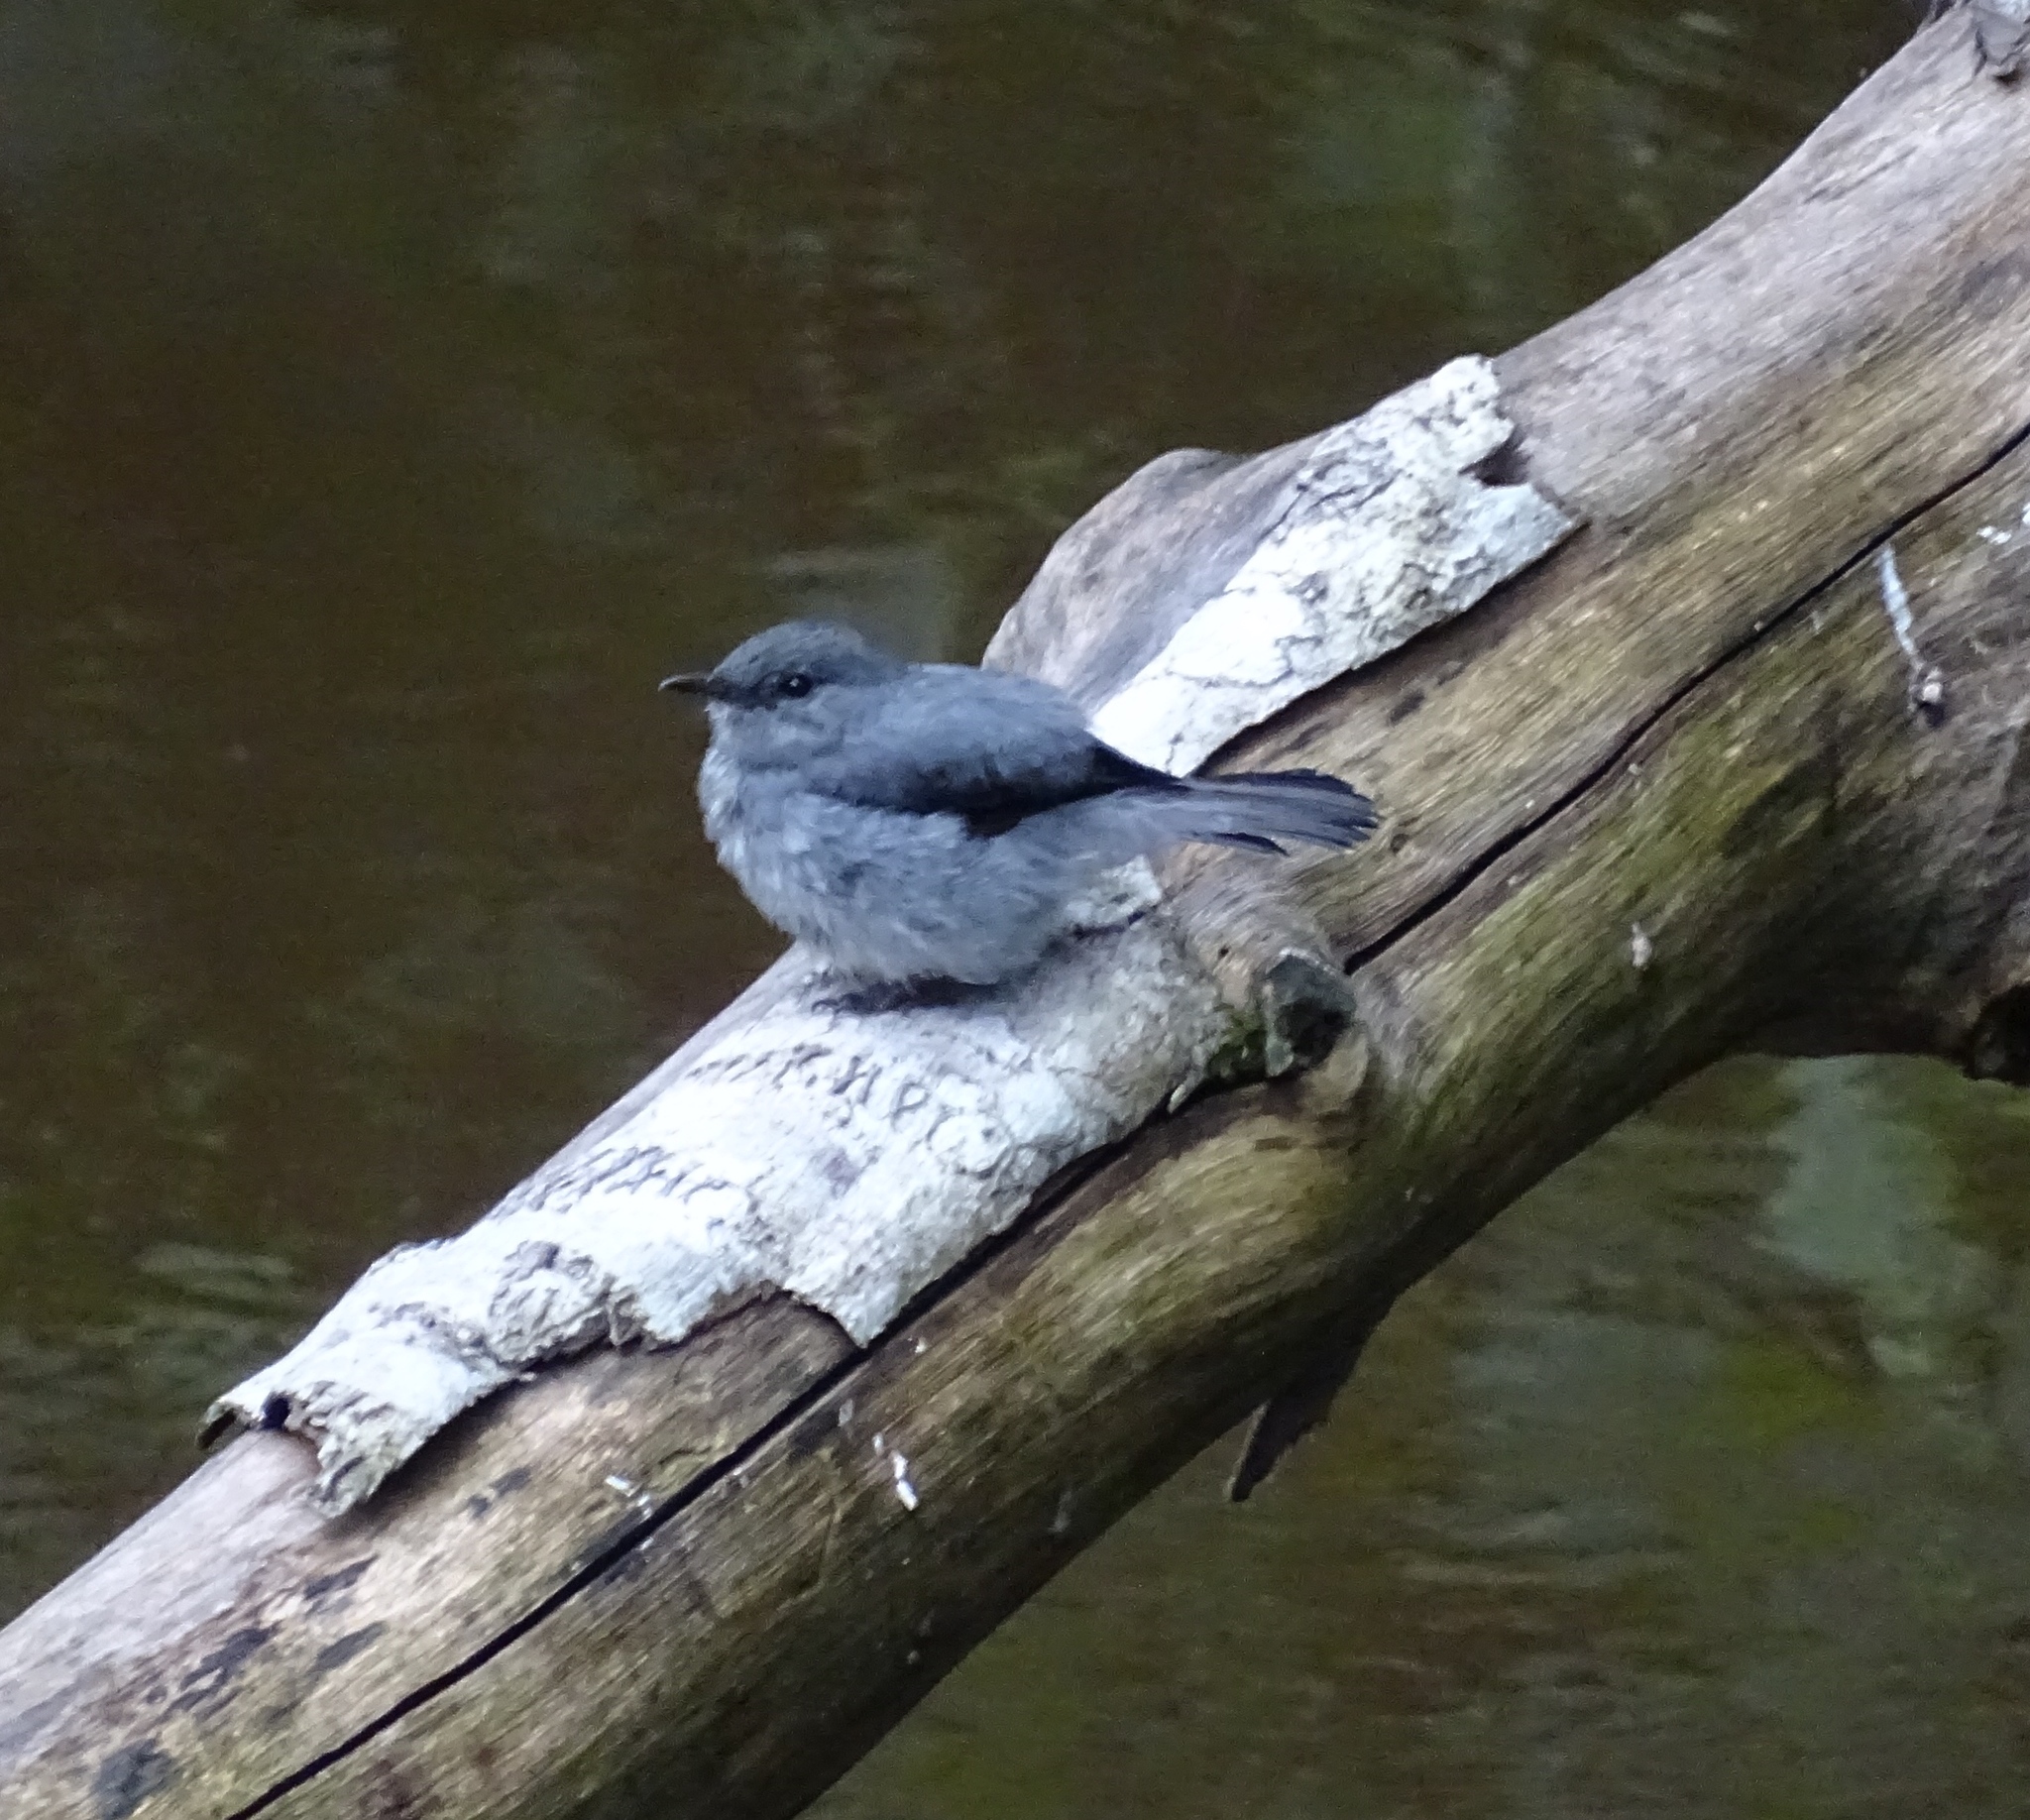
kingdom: Animalia
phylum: Chordata
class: Aves
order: Passeriformes
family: Muscicapidae
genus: Muscicapa
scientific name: Muscicapa cassini
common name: Cassin's flycatcher
